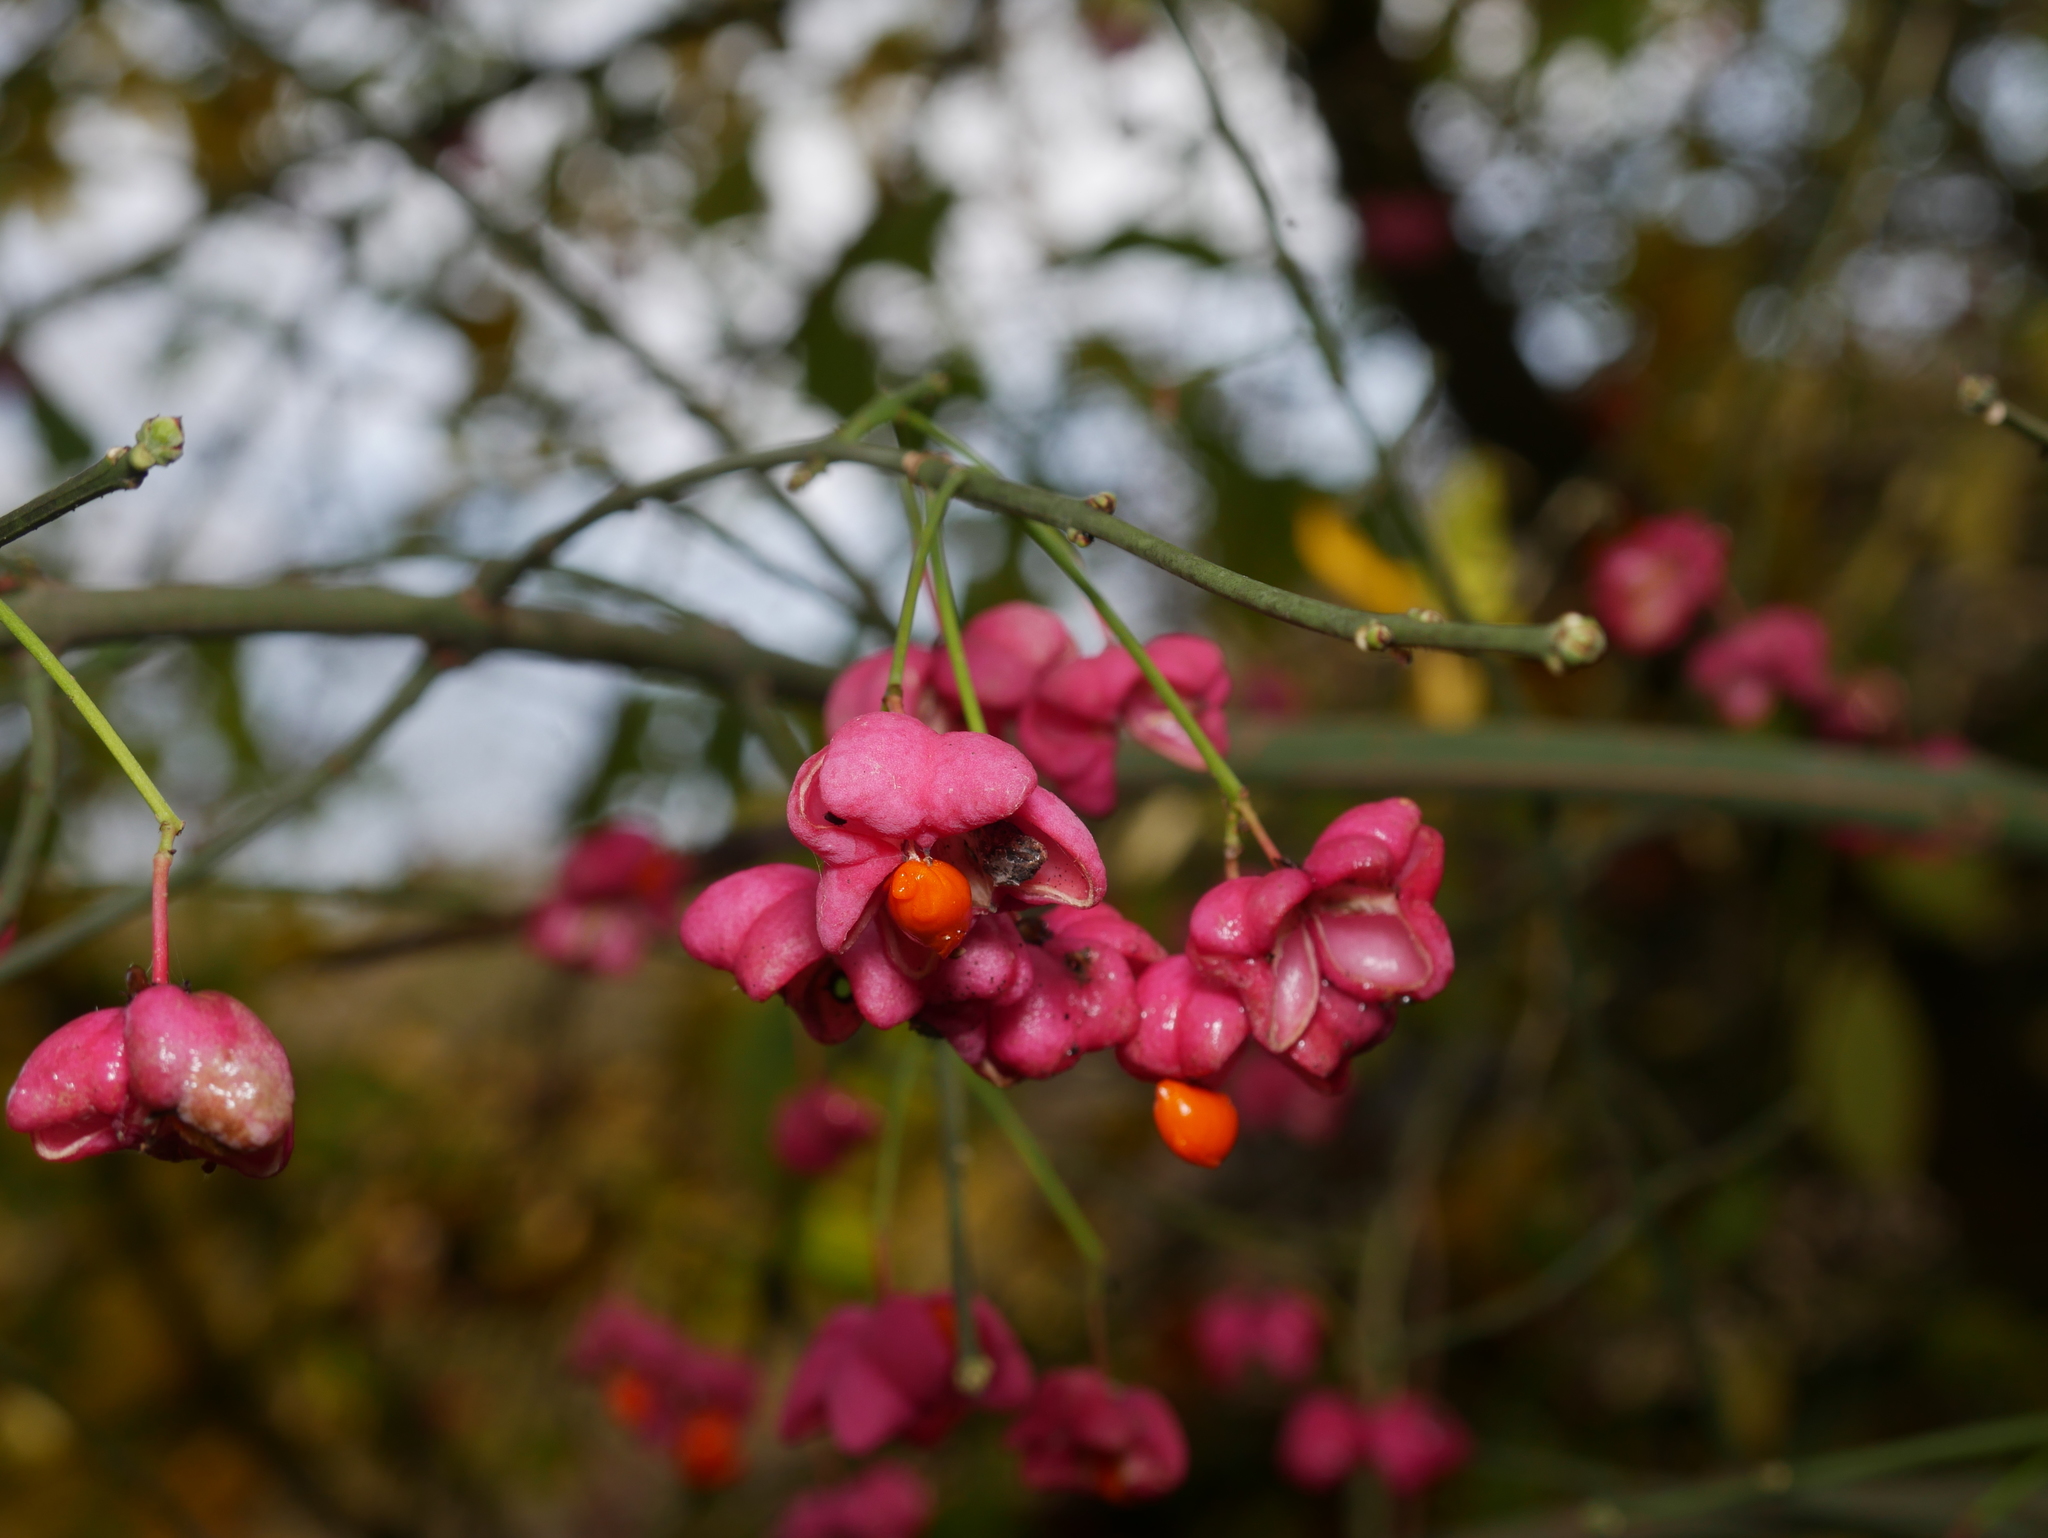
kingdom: Plantae
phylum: Tracheophyta
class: Magnoliopsida
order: Celastrales
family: Celastraceae
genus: Euonymus
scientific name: Euonymus europaeus
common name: Spindle
